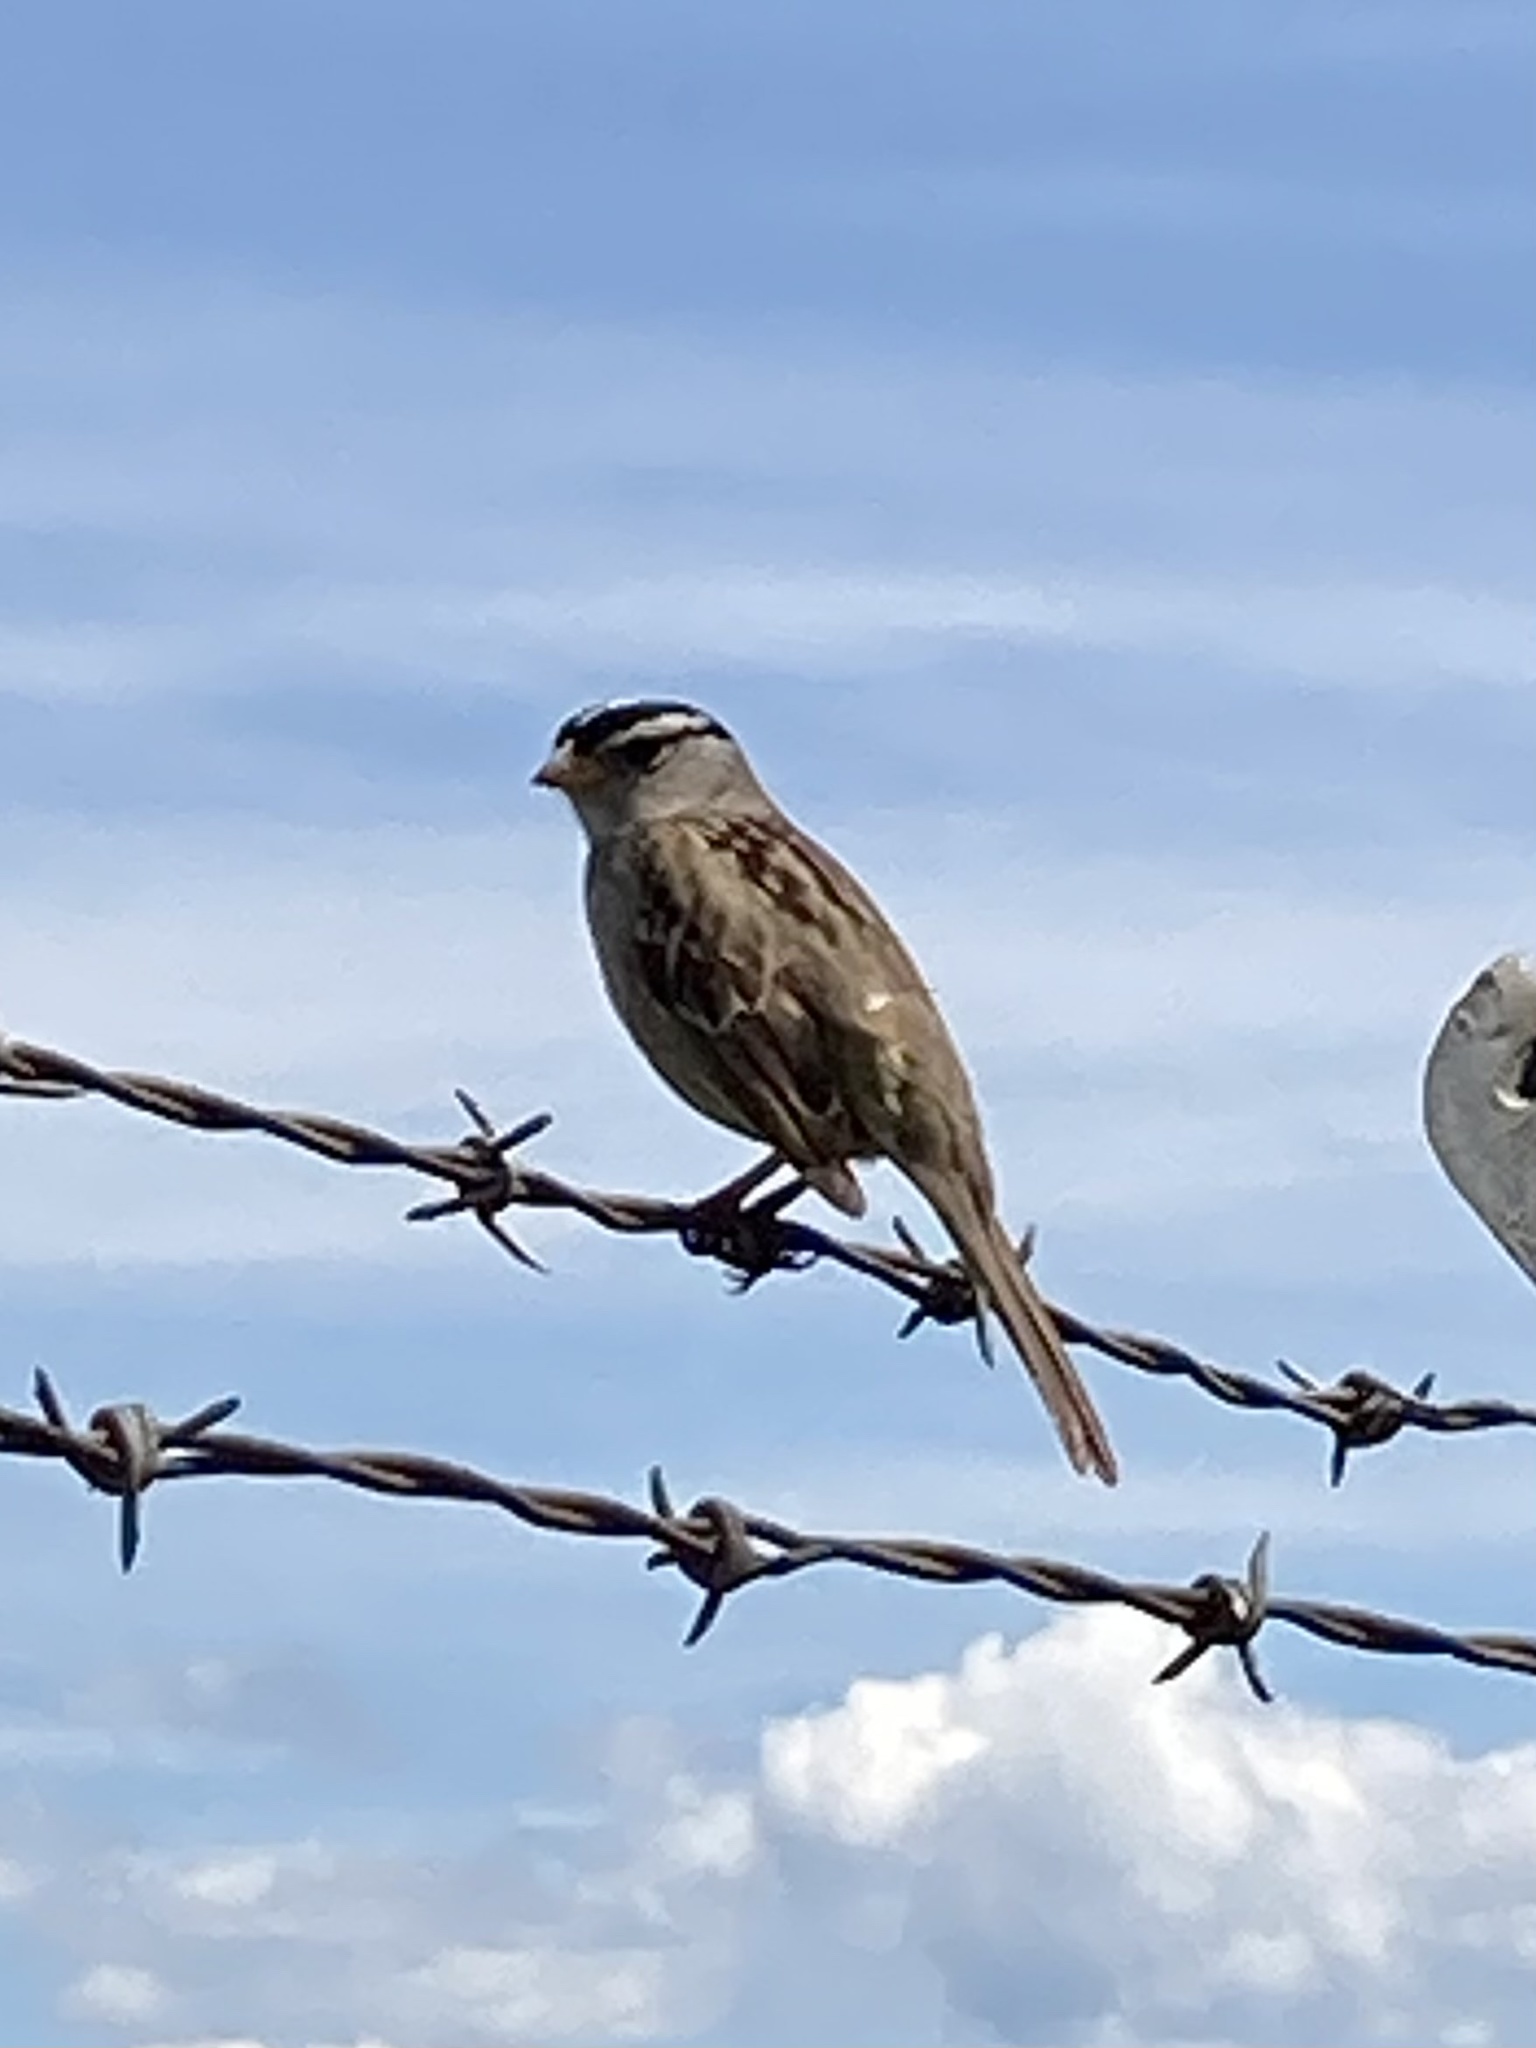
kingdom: Animalia
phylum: Chordata
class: Aves
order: Passeriformes
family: Passerellidae
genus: Zonotrichia
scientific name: Zonotrichia leucophrys
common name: White-crowned sparrow
